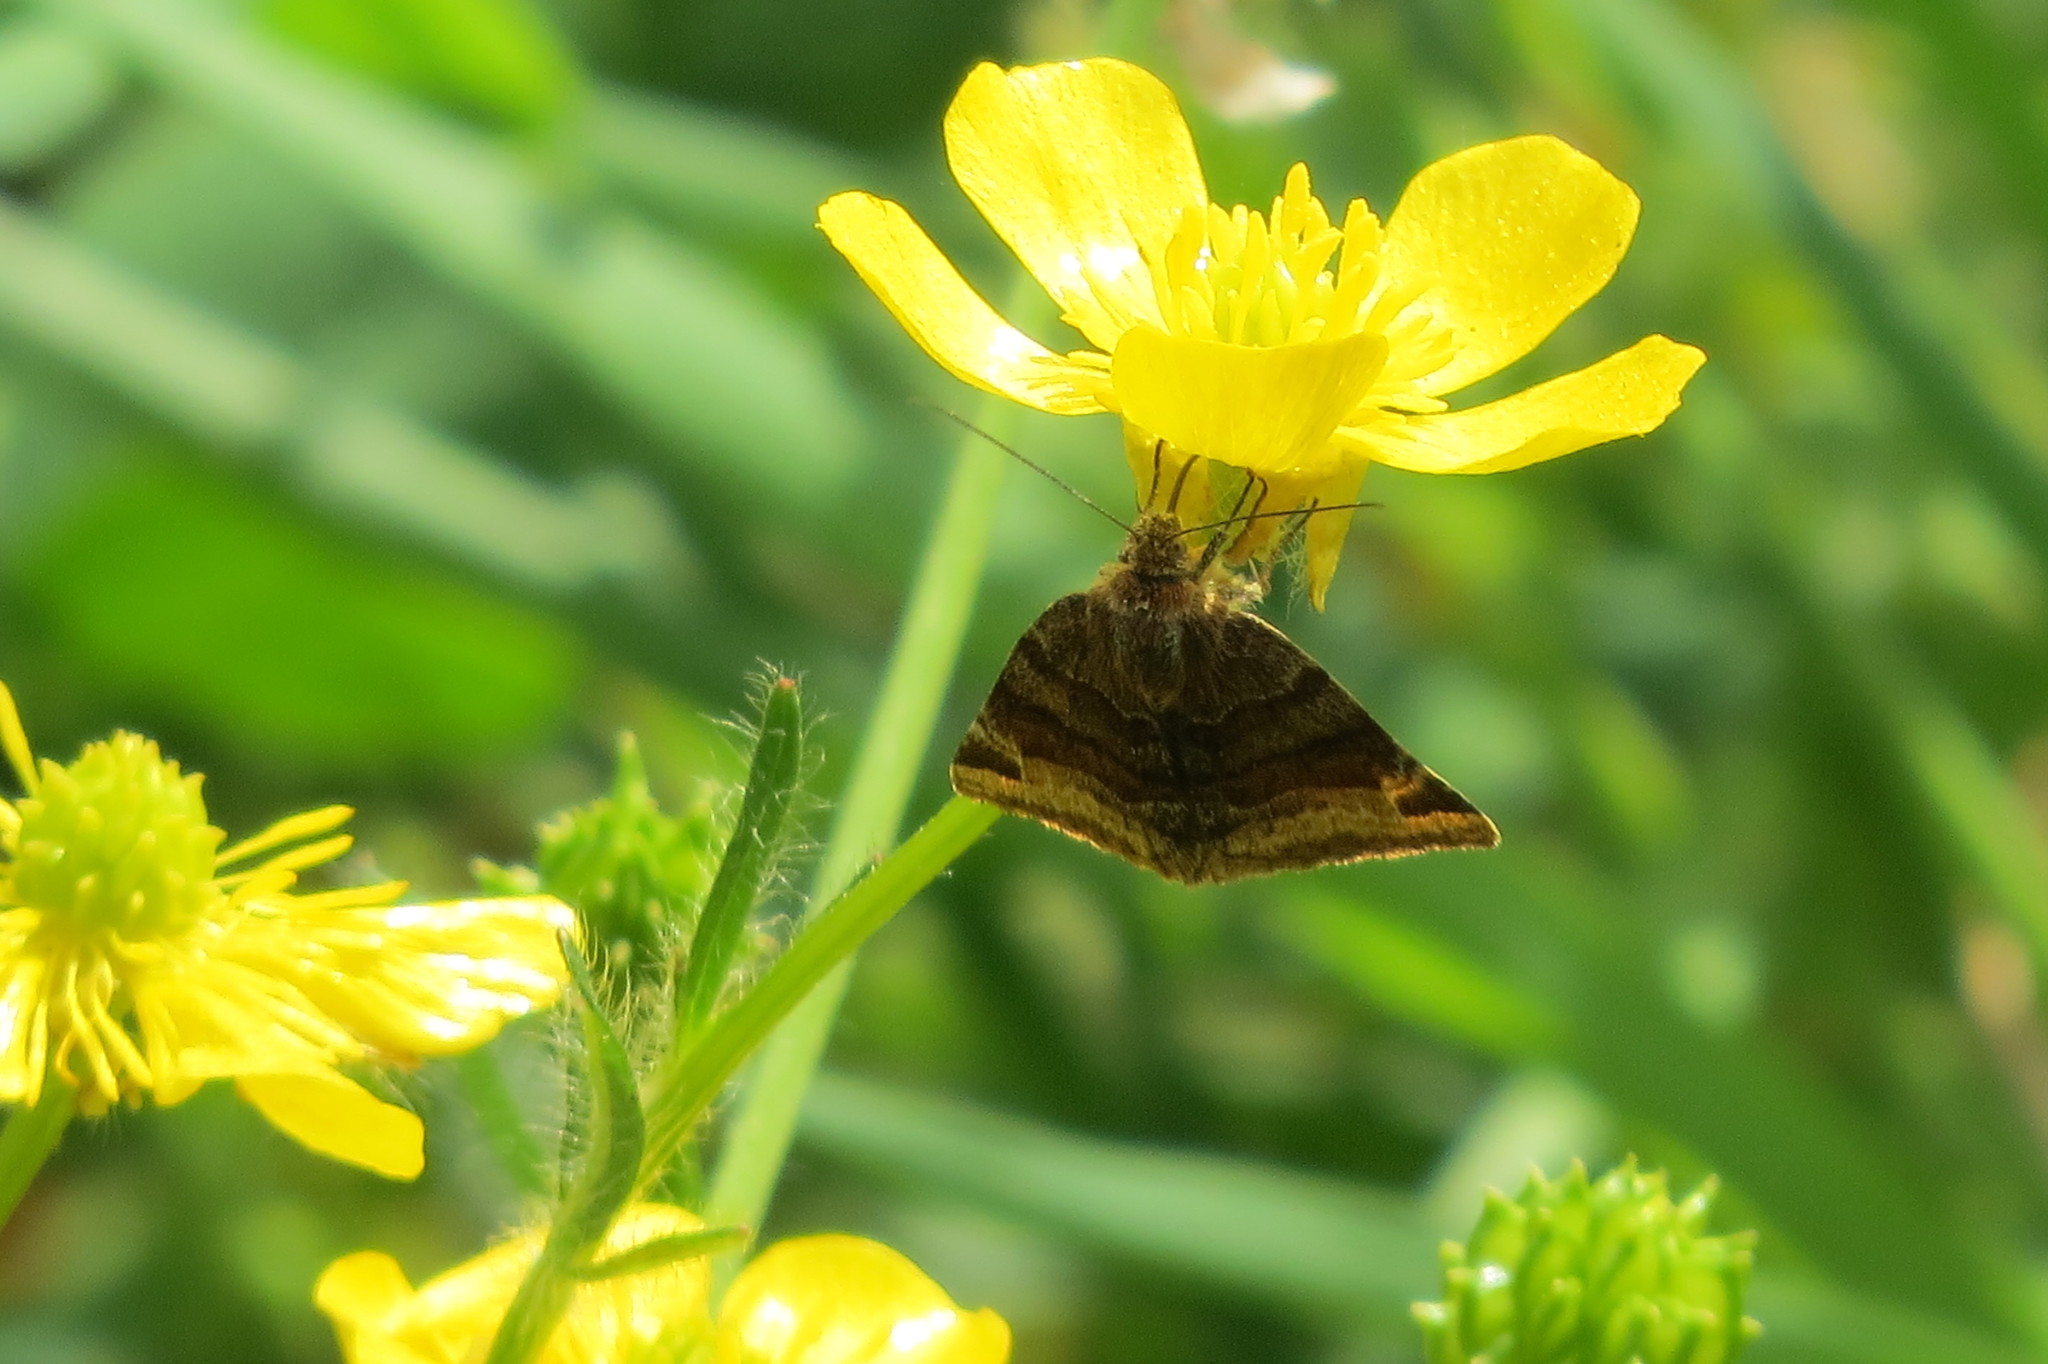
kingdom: Animalia
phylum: Arthropoda
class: Insecta
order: Lepidoptera
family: Erebidae
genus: Euclidia
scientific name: Euclidia glyphica
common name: Burnet companion
